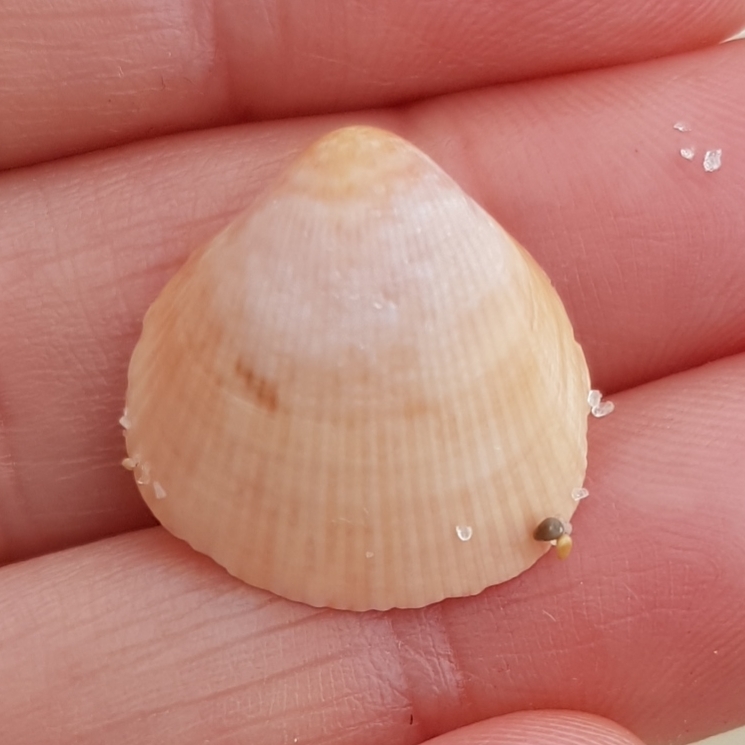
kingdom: Animalia
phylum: Mollusca
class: Bivalvia
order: Cardiida
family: Cardiidae
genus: Laevicardium
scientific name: Laevicardium crassum
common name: Norway cockle
